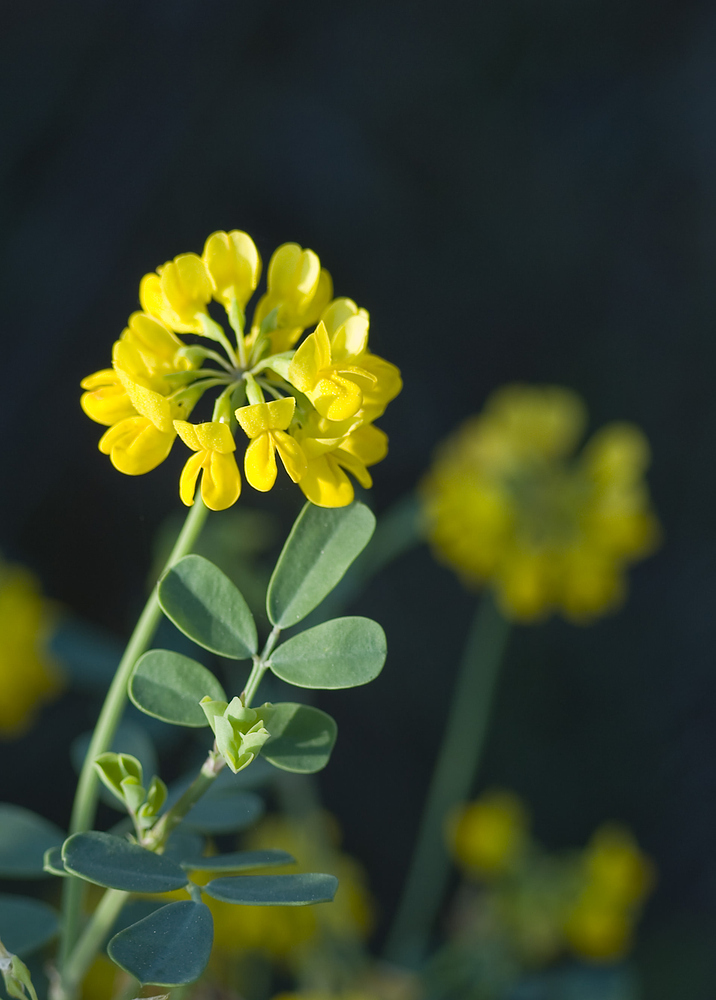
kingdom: Plantae
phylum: Tracheophyta
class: Magnoliopsida
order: Fabales
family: Fabaceae
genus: Coronilla
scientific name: Coronilla valentina
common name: Shrubby scorpion-vetch
